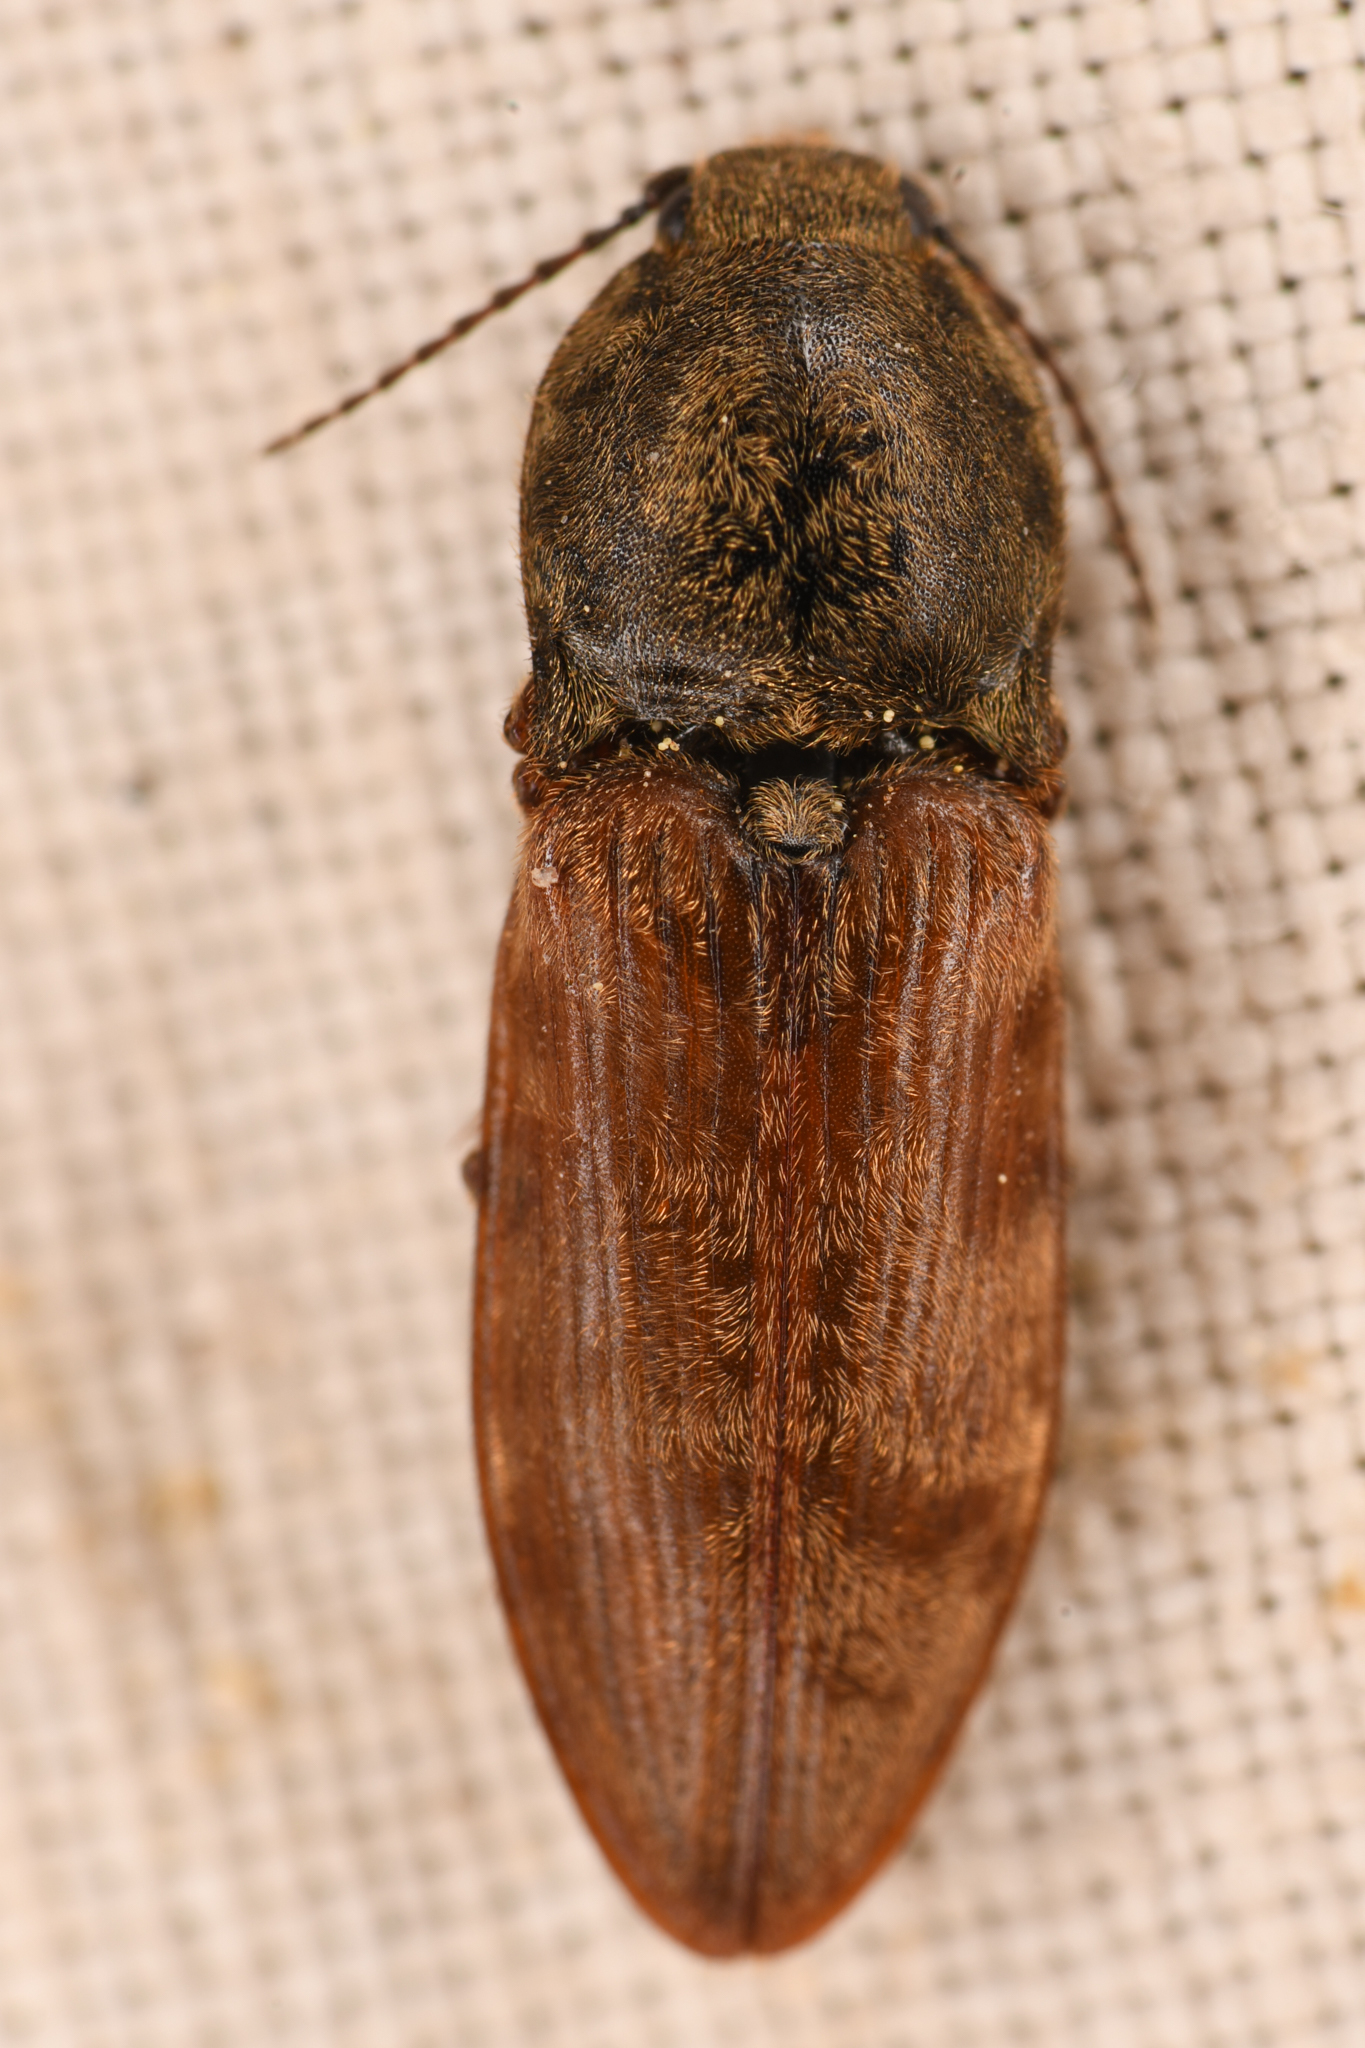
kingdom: Animalia
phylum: Arthropoda
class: Insecta
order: Coleoptera
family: Elateridae
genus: Prosternon
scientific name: Prosternon bombycinum
